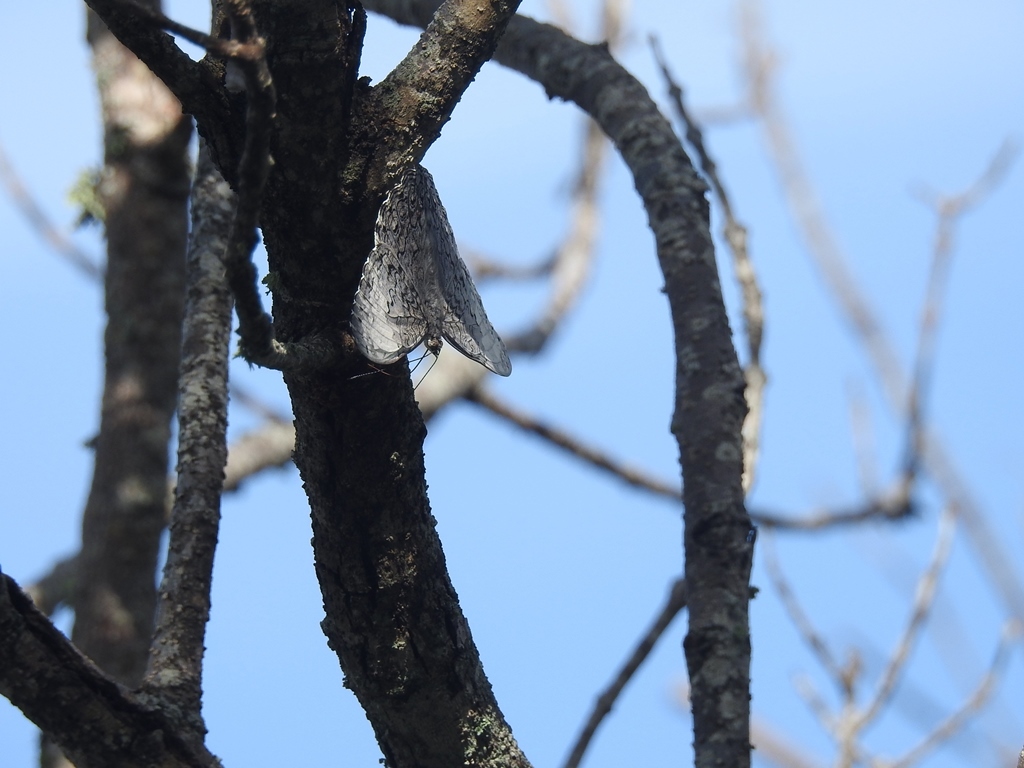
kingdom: Animalia
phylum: Arthropoda
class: Insecta
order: Lepidoptera
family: Nymphalidae
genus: Hamadryas
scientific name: Hamadryas glauconome
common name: Glaucous cracker
